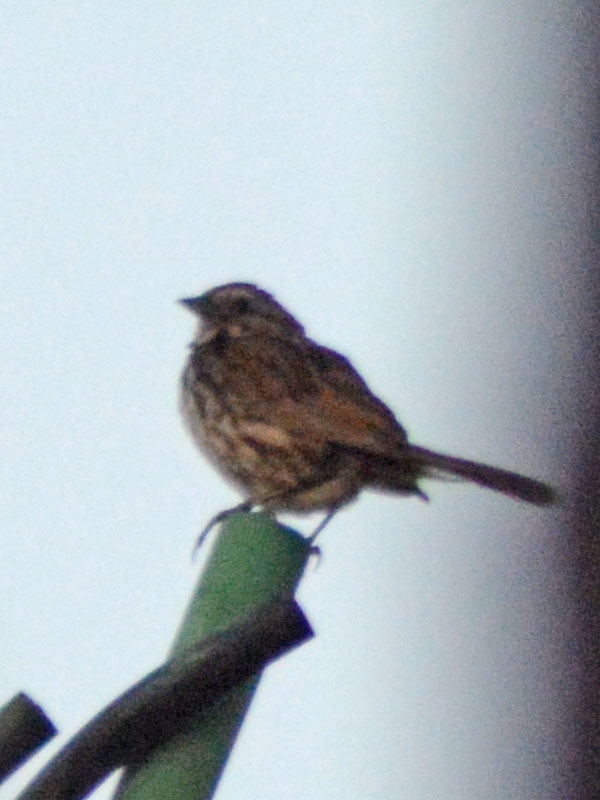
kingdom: Animalia
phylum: Chordata
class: Aves
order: Passeriformes
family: Passerellidae
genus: Melospiza
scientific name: Melospiza melodia
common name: Song sparrow
